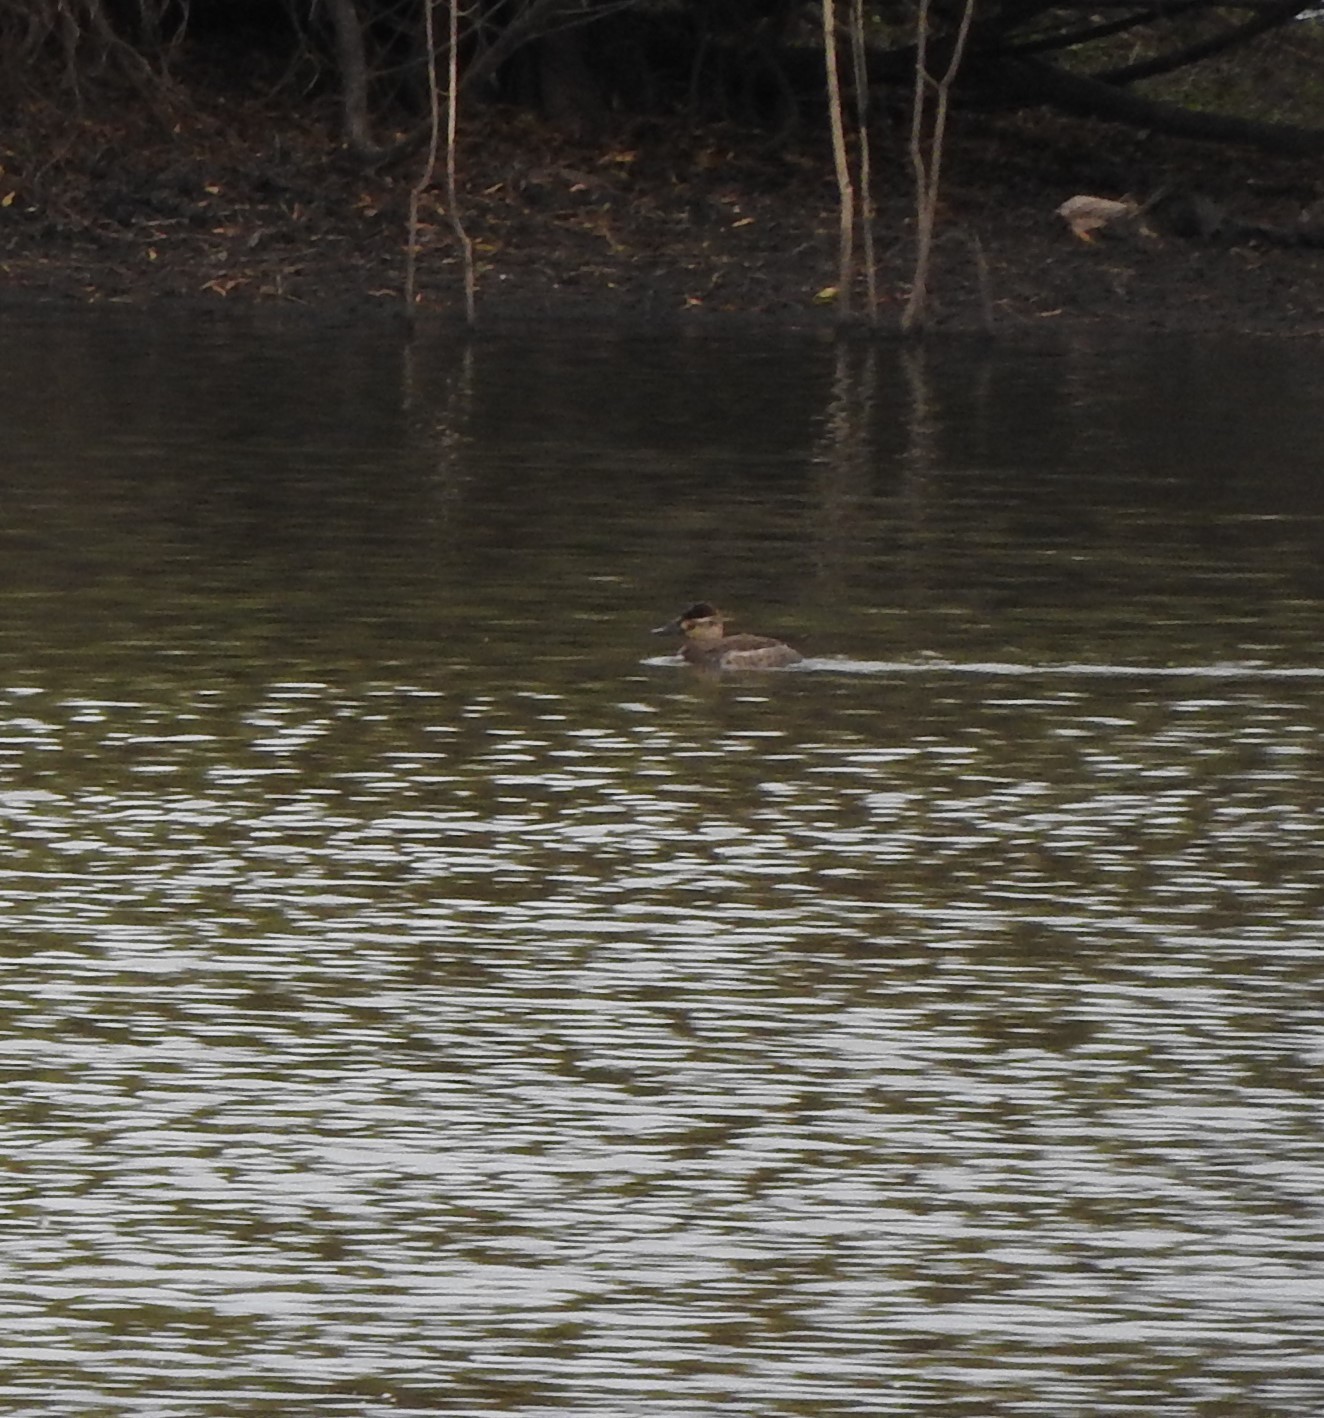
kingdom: Animalia
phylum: Chordata
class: Aves
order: Anseriformes
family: Anatidae
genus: Oxyura
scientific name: Oxyura jamaicensis
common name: Ruddy duck
